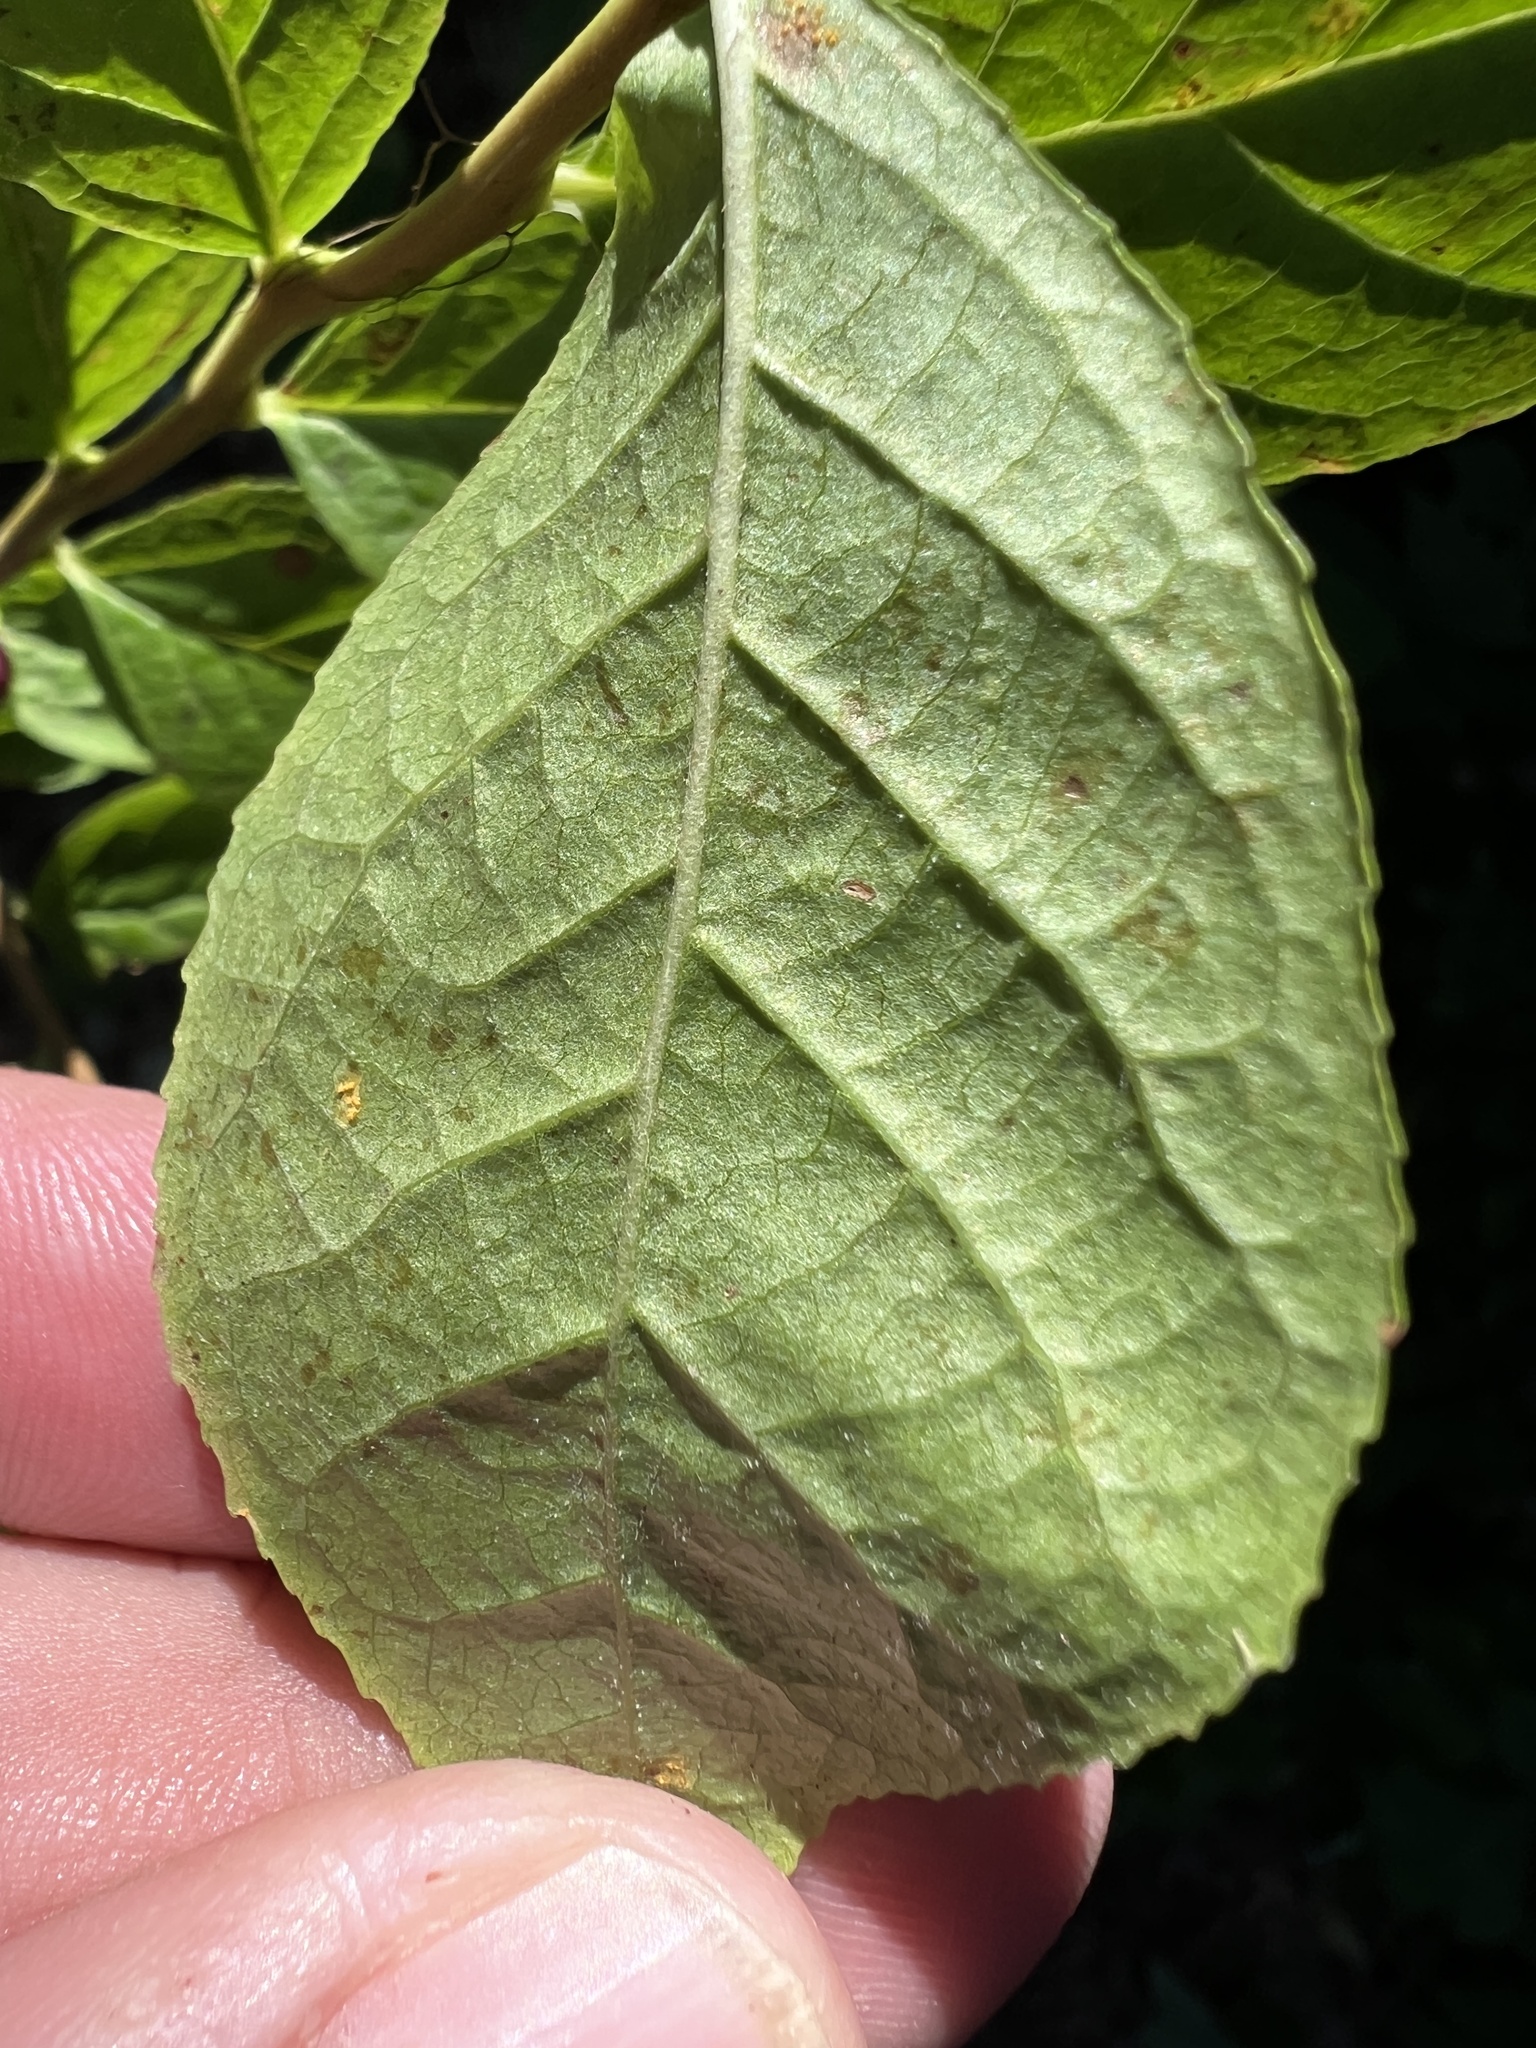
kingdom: Plantae
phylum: Tracheophyta
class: Magnoliopsida
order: Ericales
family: Ericaceae
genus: Vaccinium
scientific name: Vaccinium membranaceum
